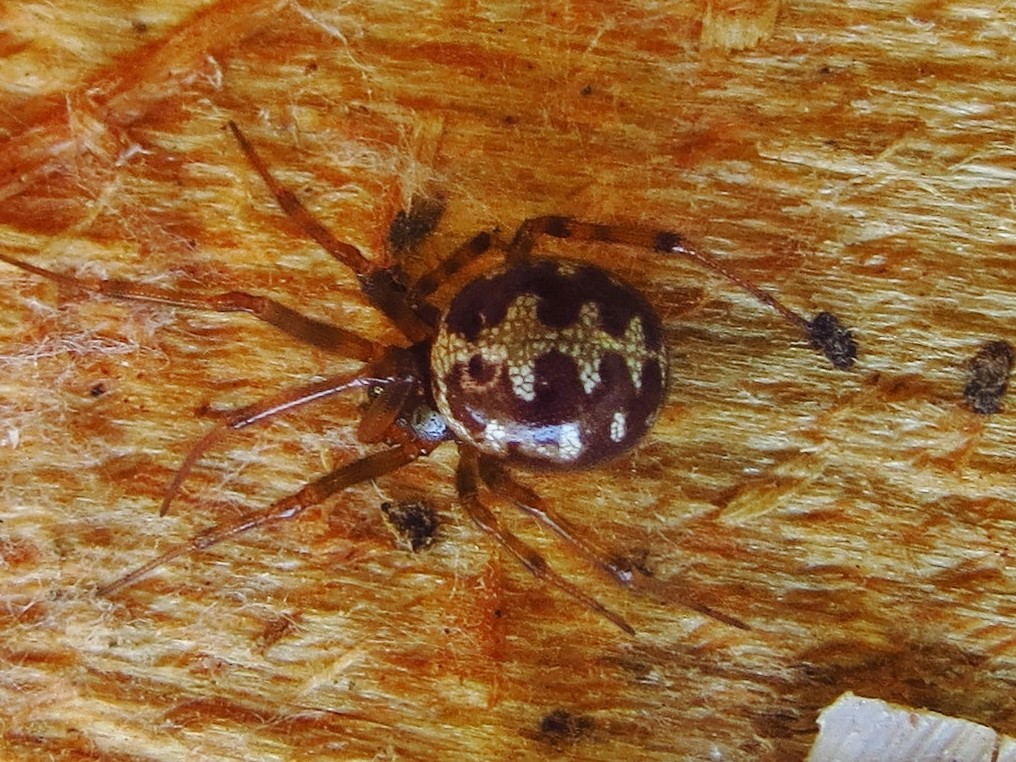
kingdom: Animalia
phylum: Arthropoda
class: Arachnida
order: Araneae
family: Theridiidae
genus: Steatoda
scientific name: Steatoda triangulosa
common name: Triangulate bud spider
